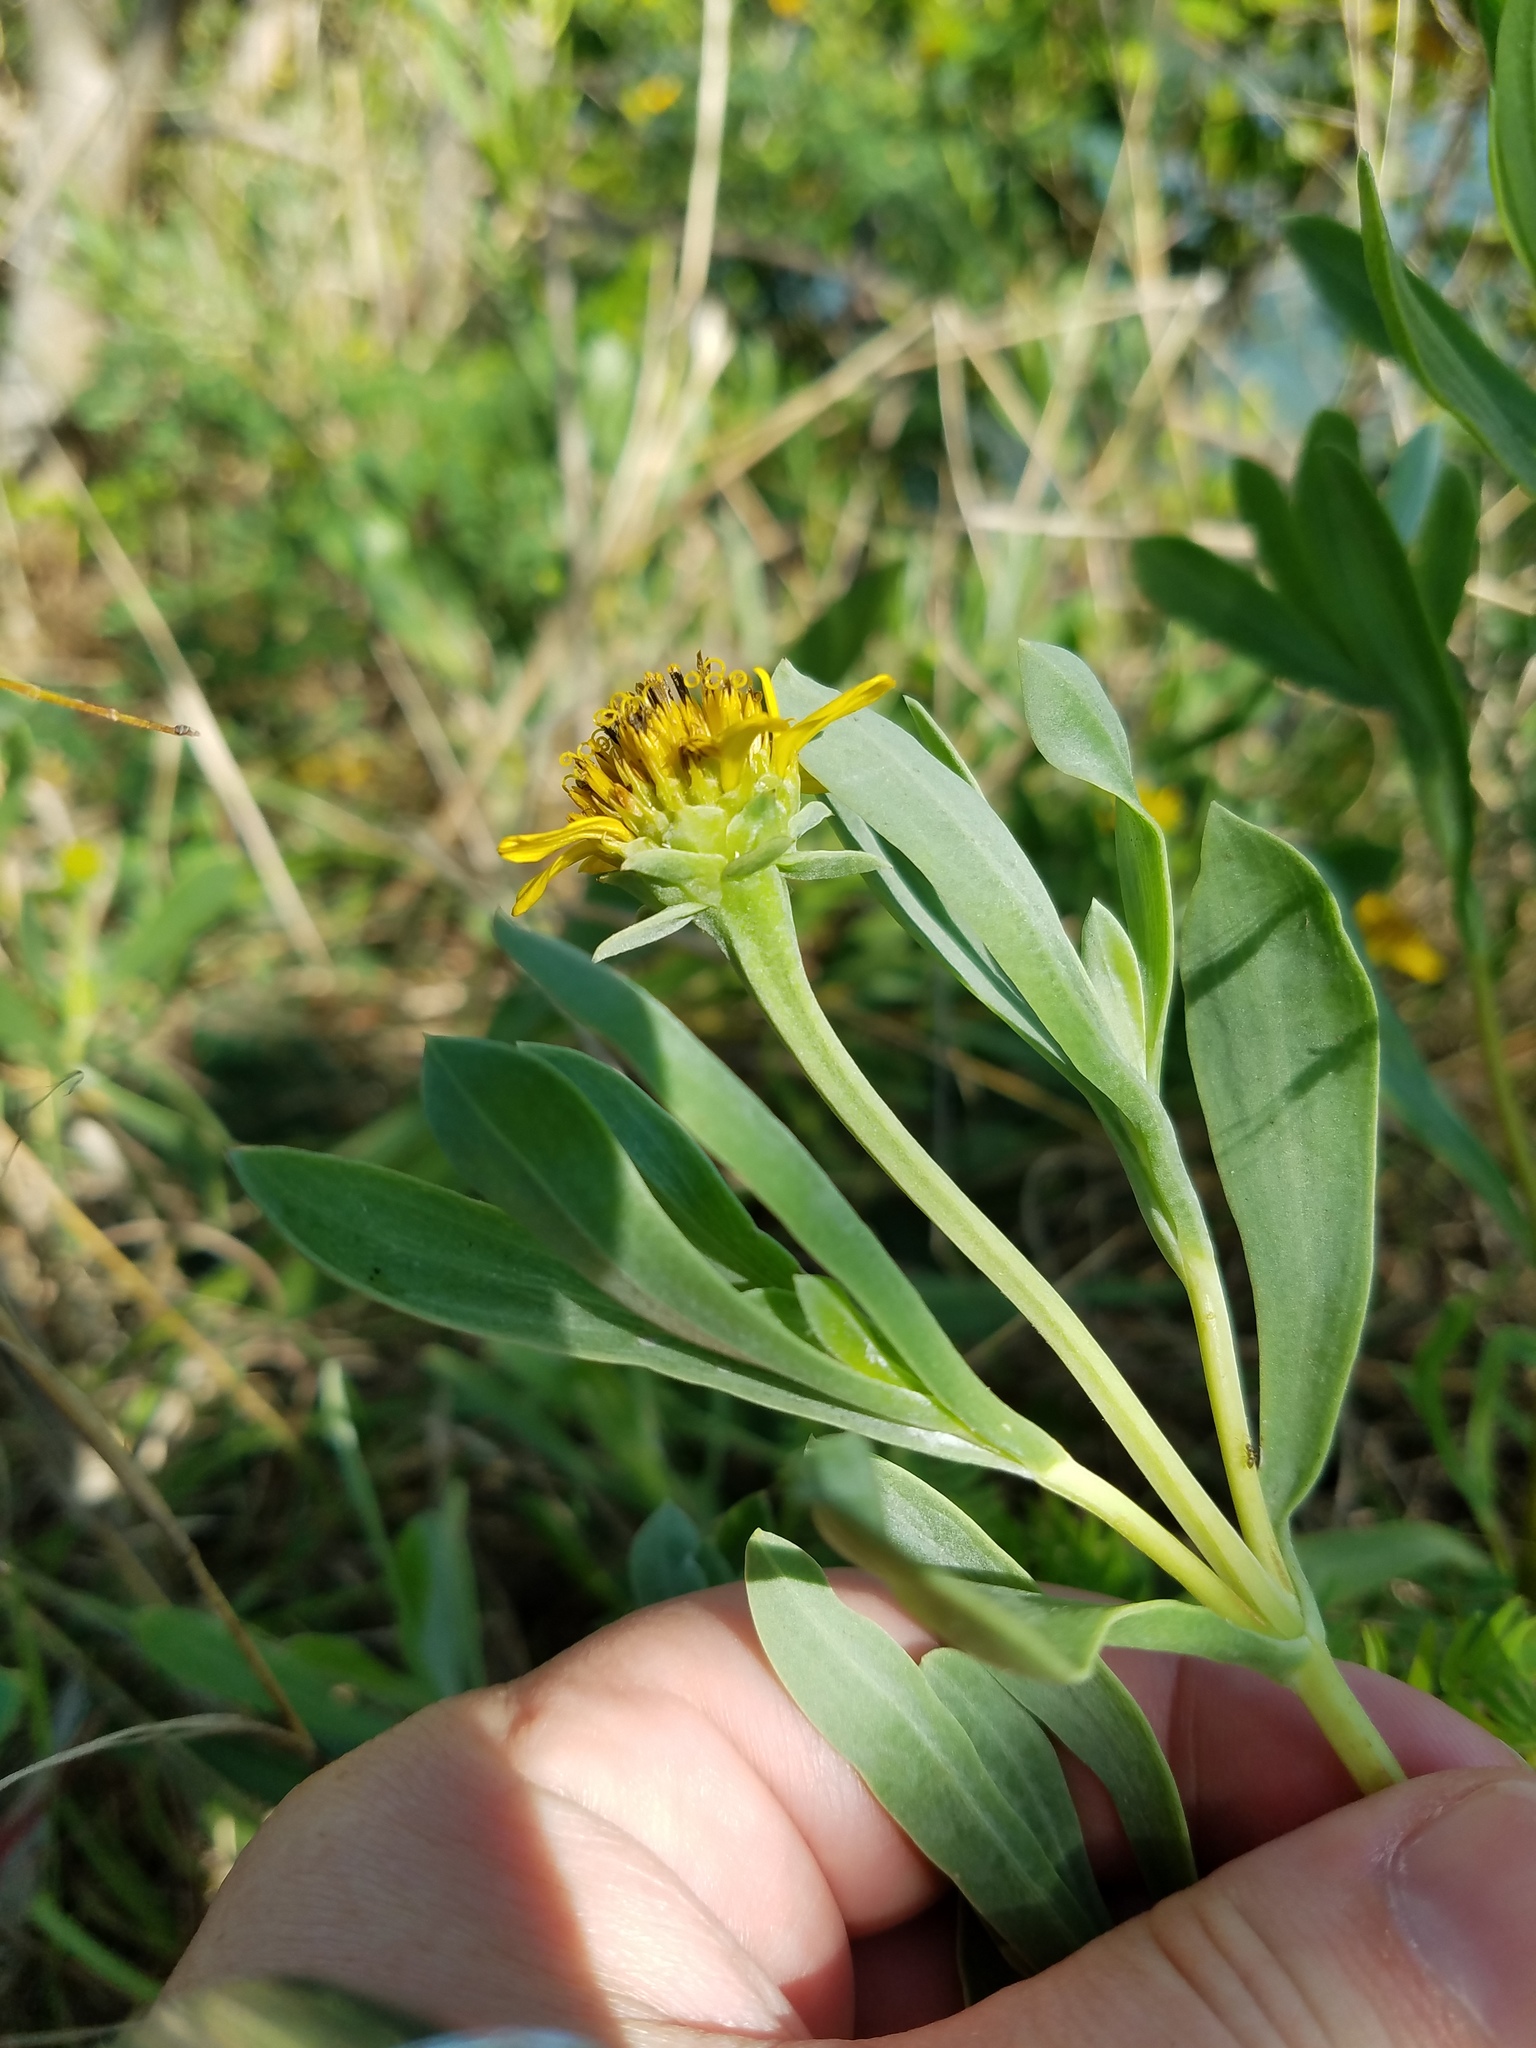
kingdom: Plantae
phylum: Tracheophyta
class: Magnoliopsida
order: Asterales
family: Asteraceae
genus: Borrichia
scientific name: Borrichia frutescens
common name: Sea oxeye
